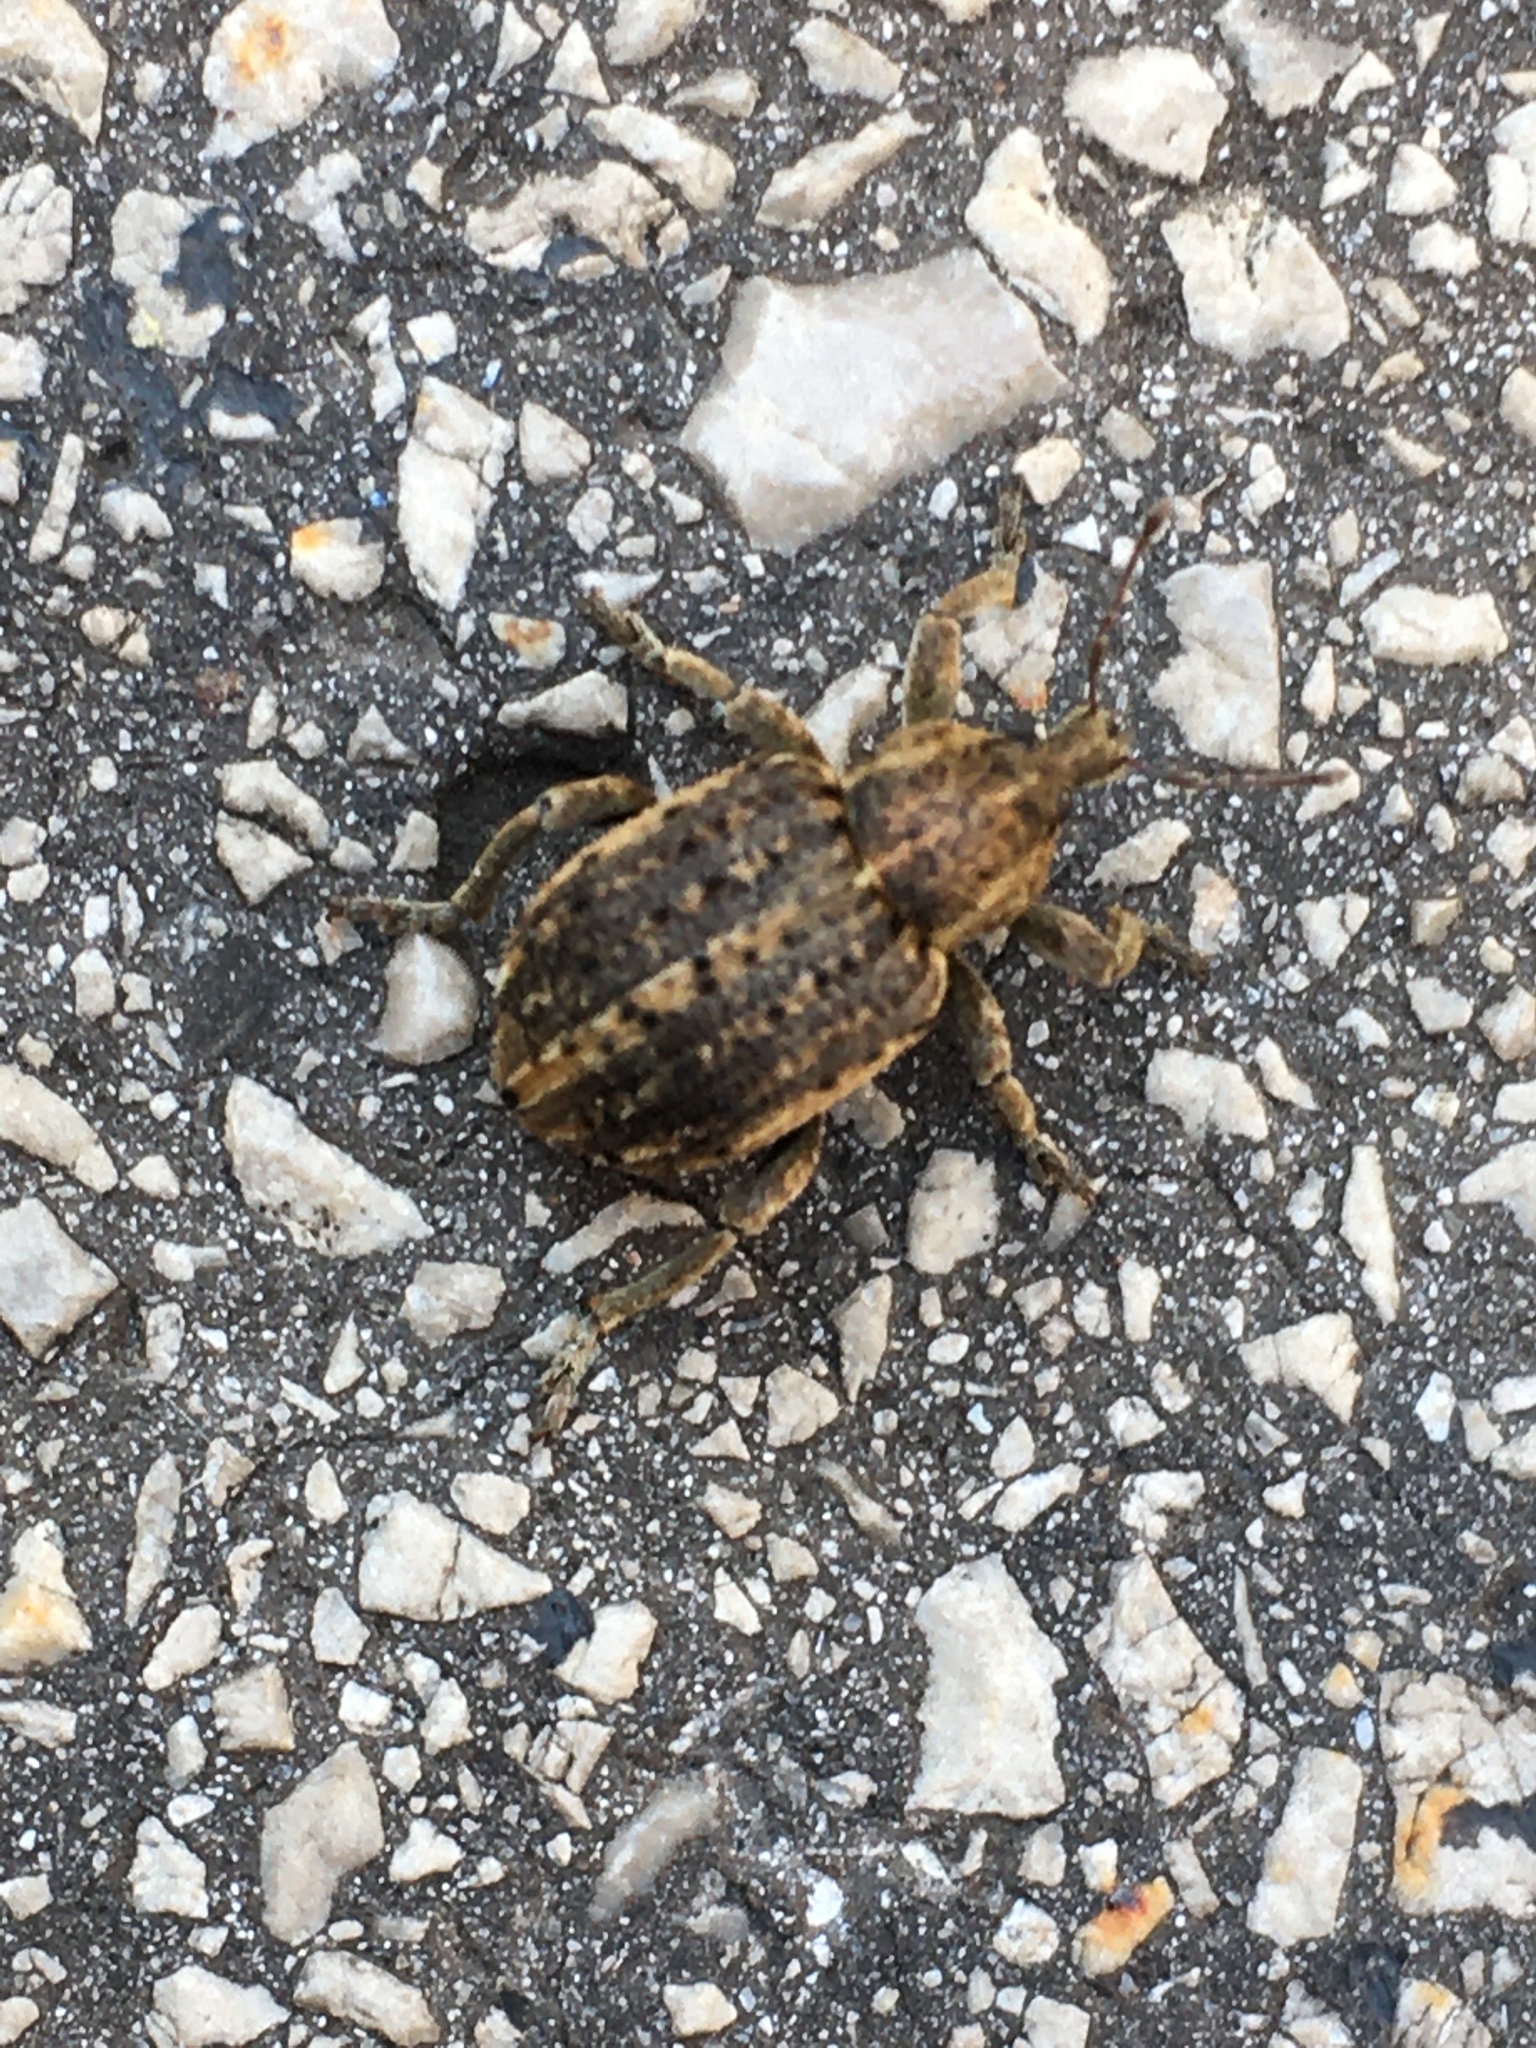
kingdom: Animalia
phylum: Arthropoda
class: Insecta
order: Coleoptera
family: Curculionidae
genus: Brachypera
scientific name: Brachypera zoilus
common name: Clover leaf weevil
